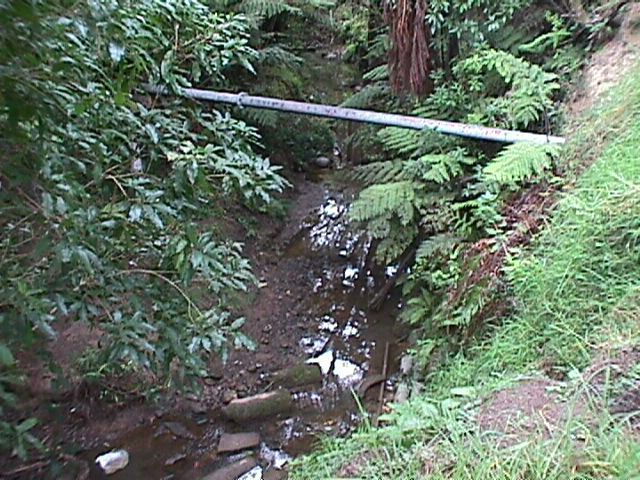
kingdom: Plantae
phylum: Tracheophyta
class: Magnoliopsida
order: Malpighiales
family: Violaceae
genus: Melicytus
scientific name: Melicytus ramiflorus
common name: Mahoe
